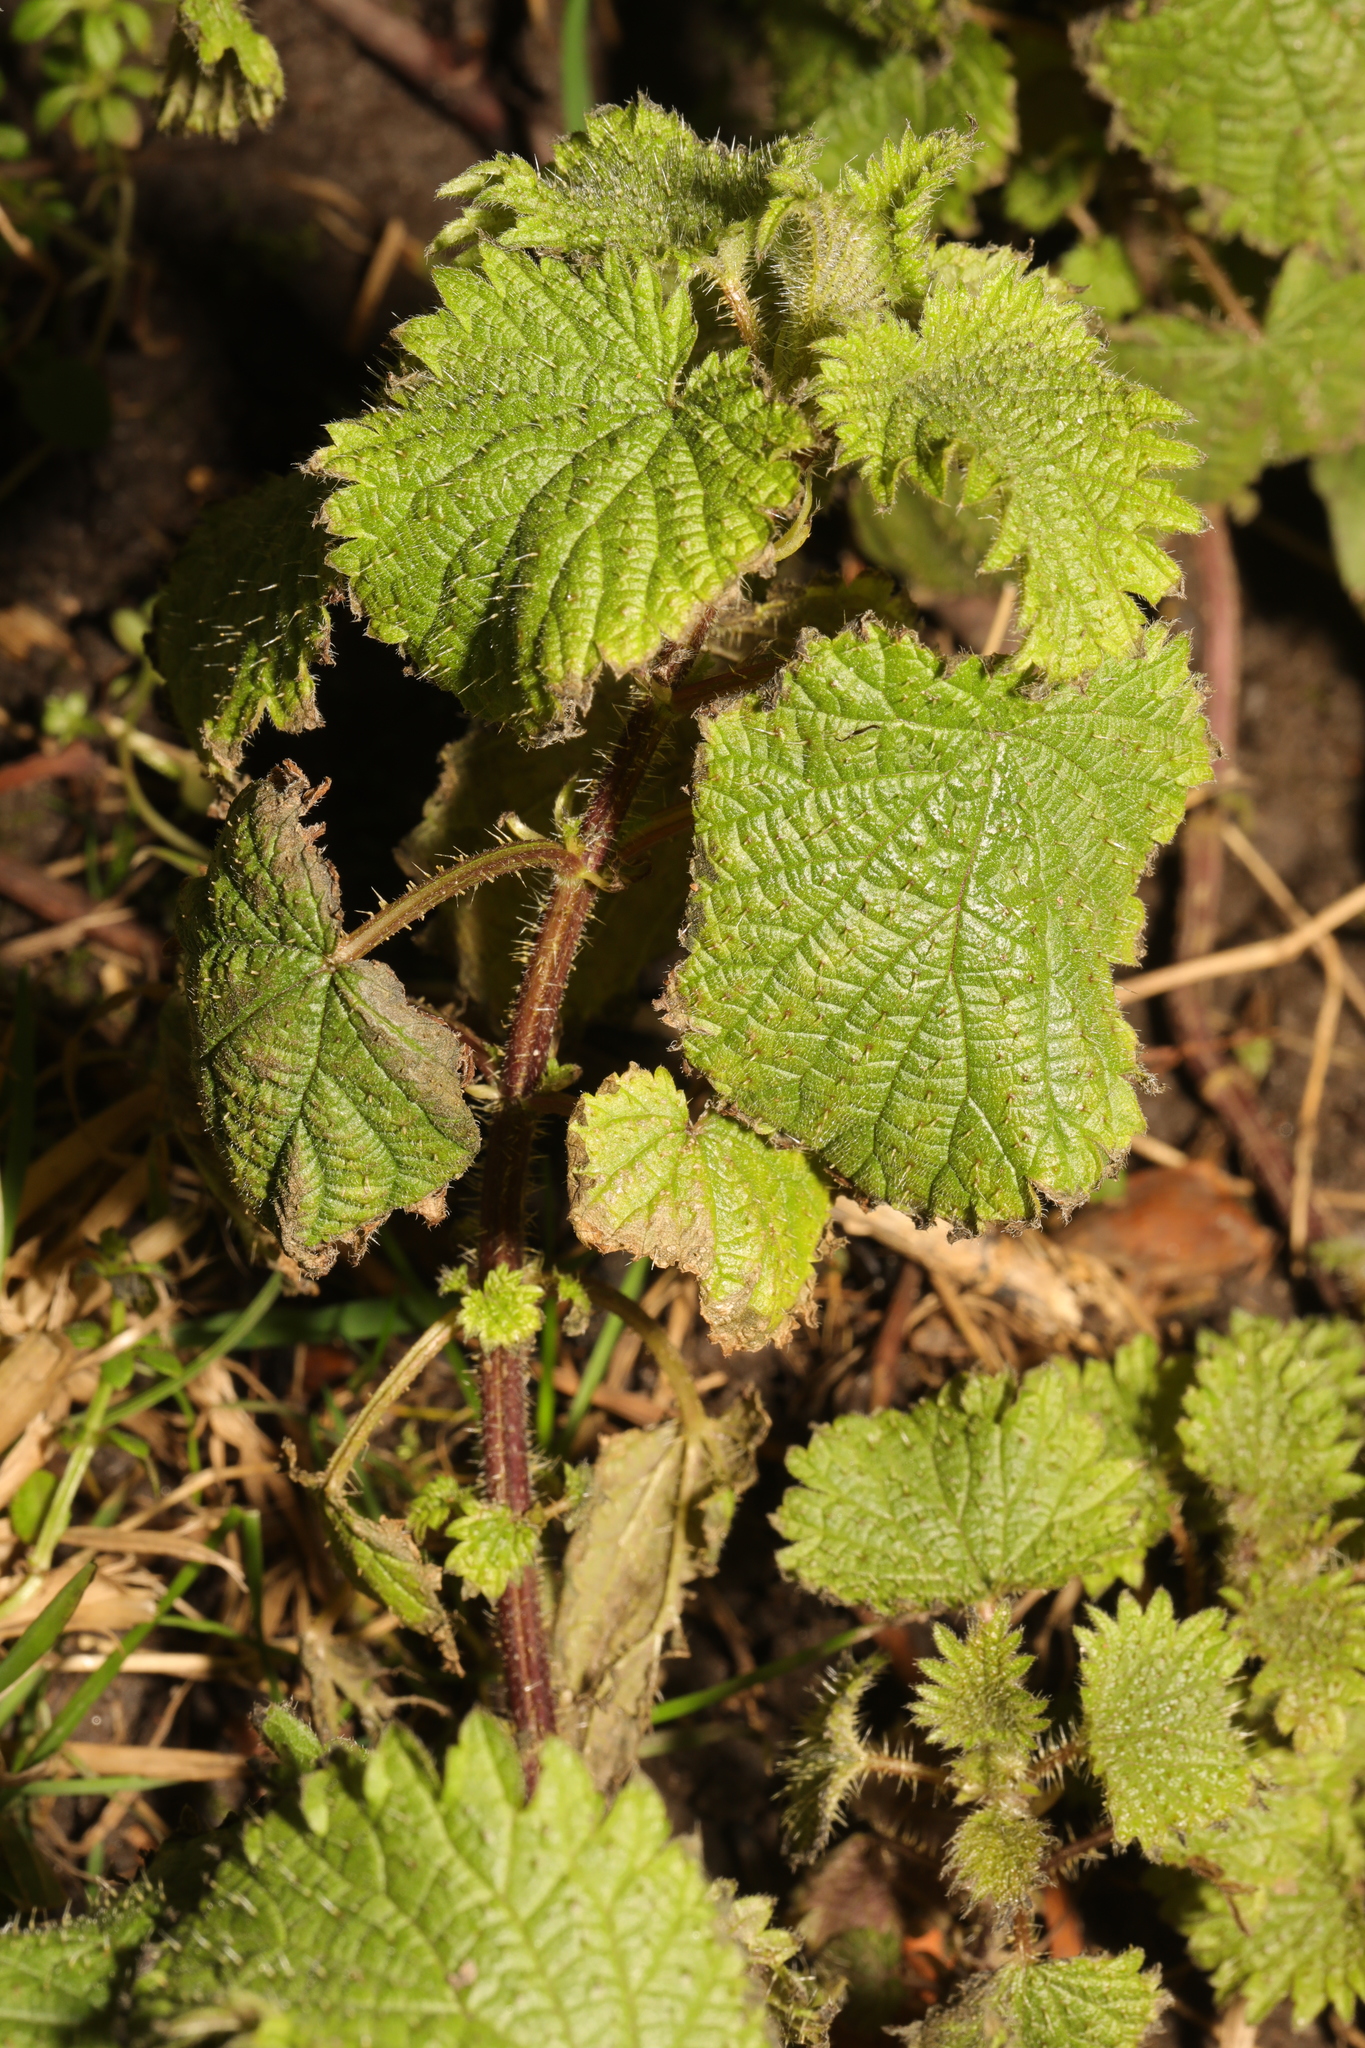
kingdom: Plantae
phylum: Tracheophyta
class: Magnoliopsida
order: Rosales
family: Urticaceae
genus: Urtica
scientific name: Urtica dioica
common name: Common nettle
